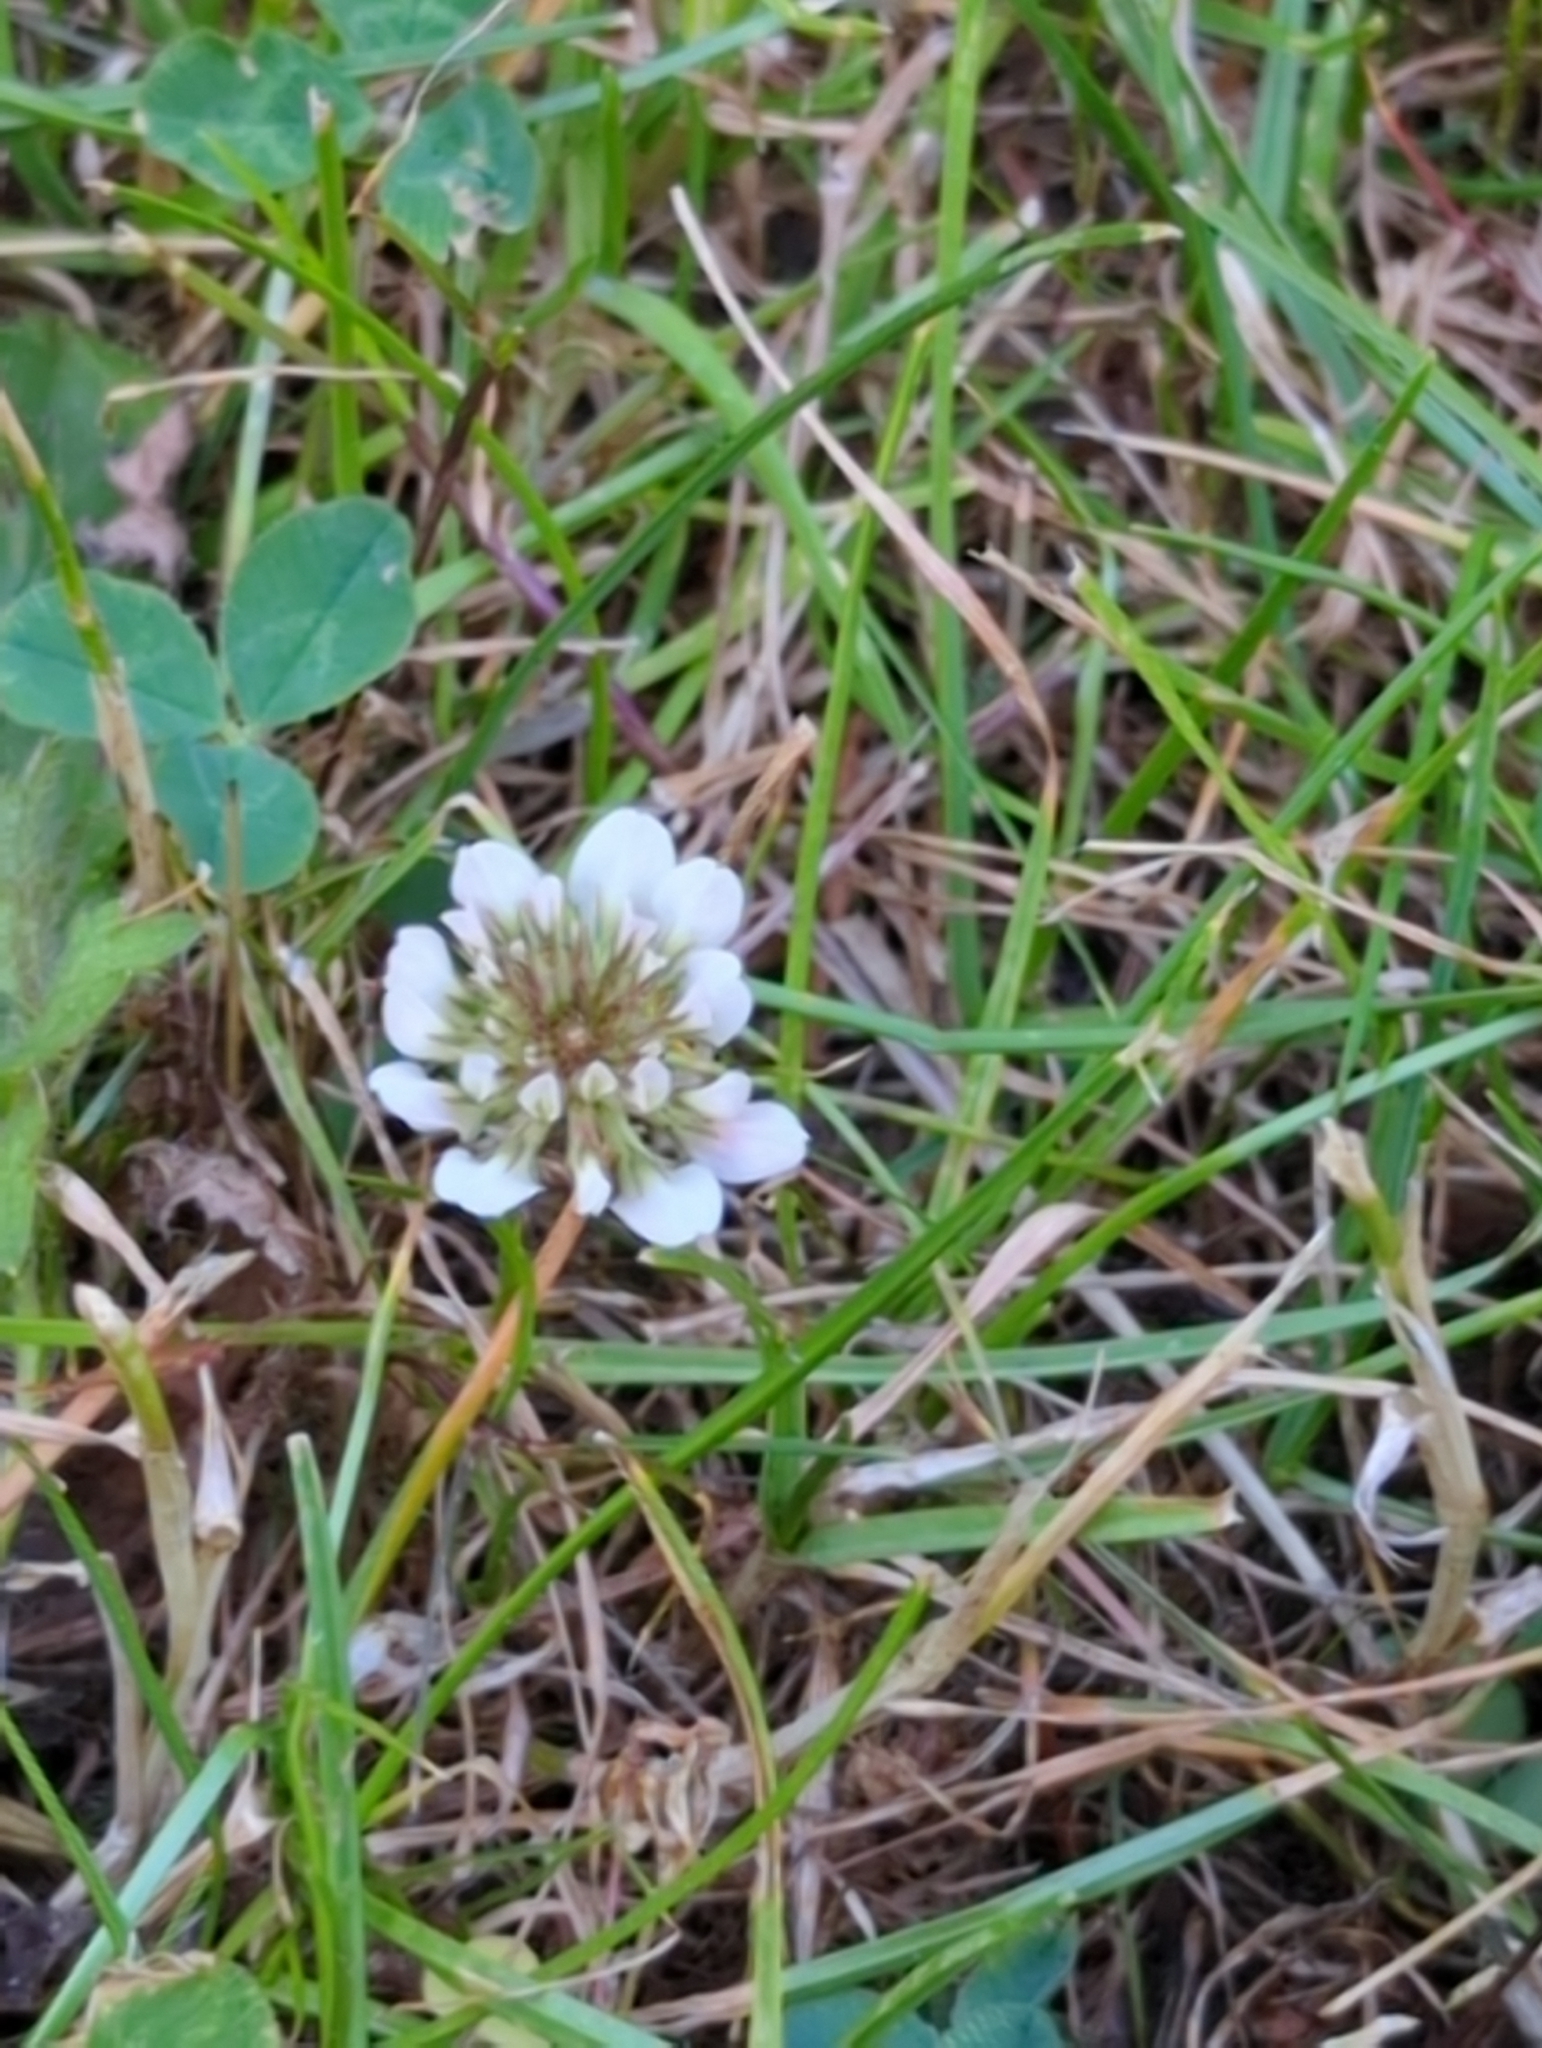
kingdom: Plantae
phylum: Tracheophyta
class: Magnoliopsida
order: Fabales
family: Fabaceae
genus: Trifolium
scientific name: Trifolium repens
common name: White clover
